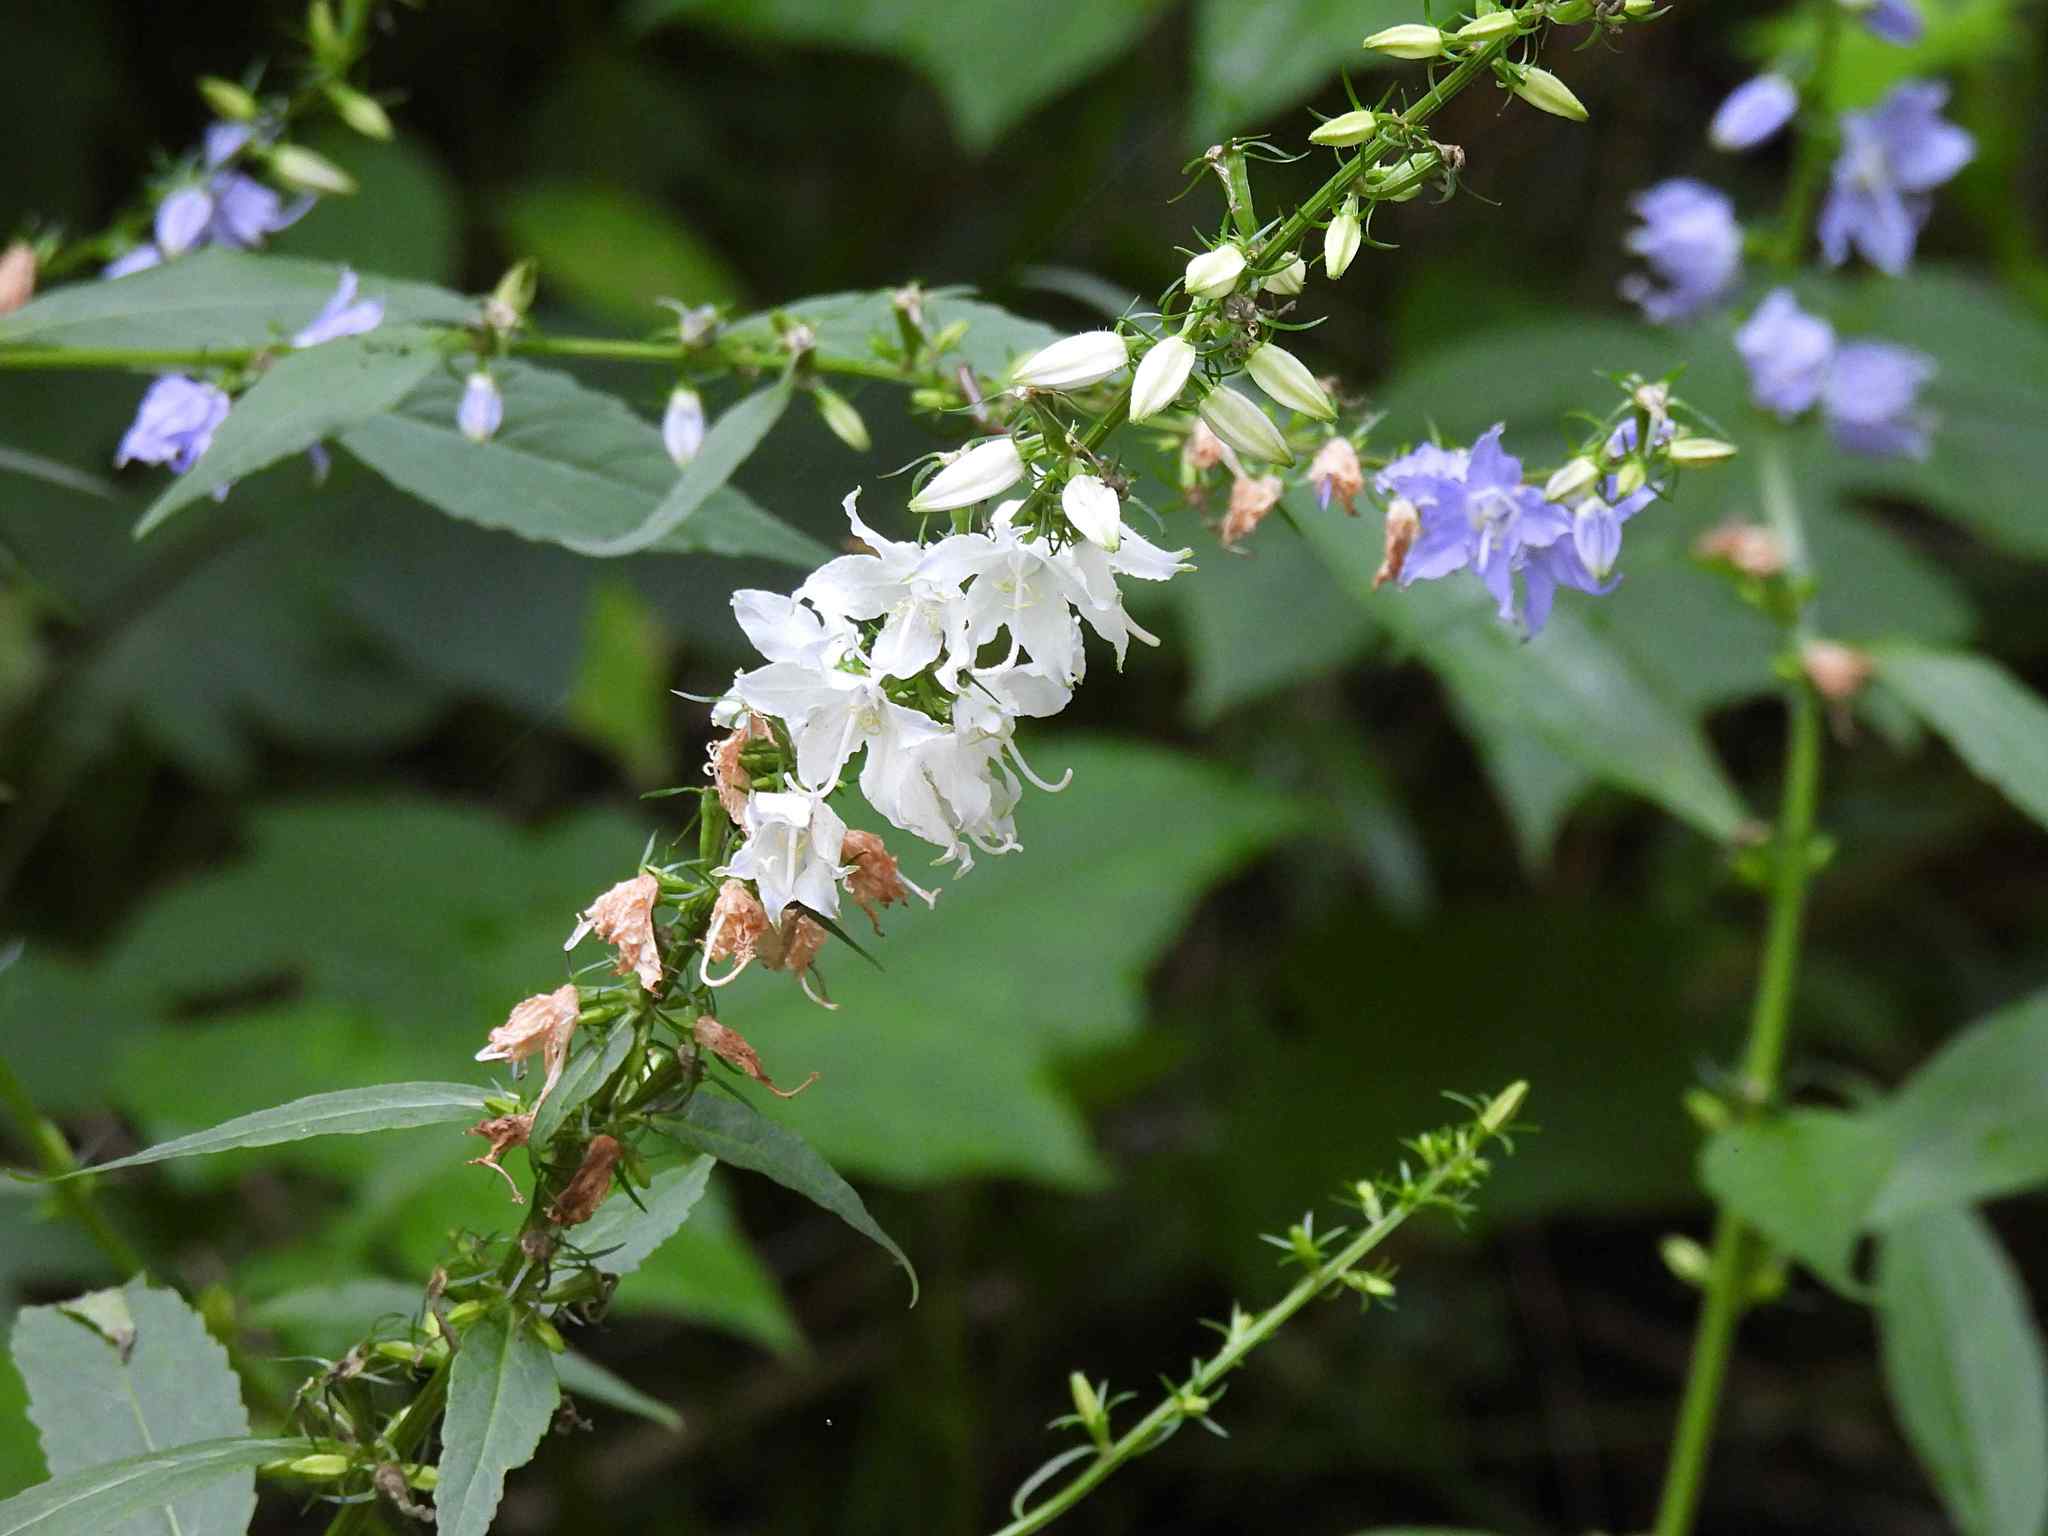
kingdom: Plantae
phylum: Tracheophyta
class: Magnoliopsida
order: Asterales
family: Campanulaceae
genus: Campanulastrum
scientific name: Campanulastrum americanum
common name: American bellflower
